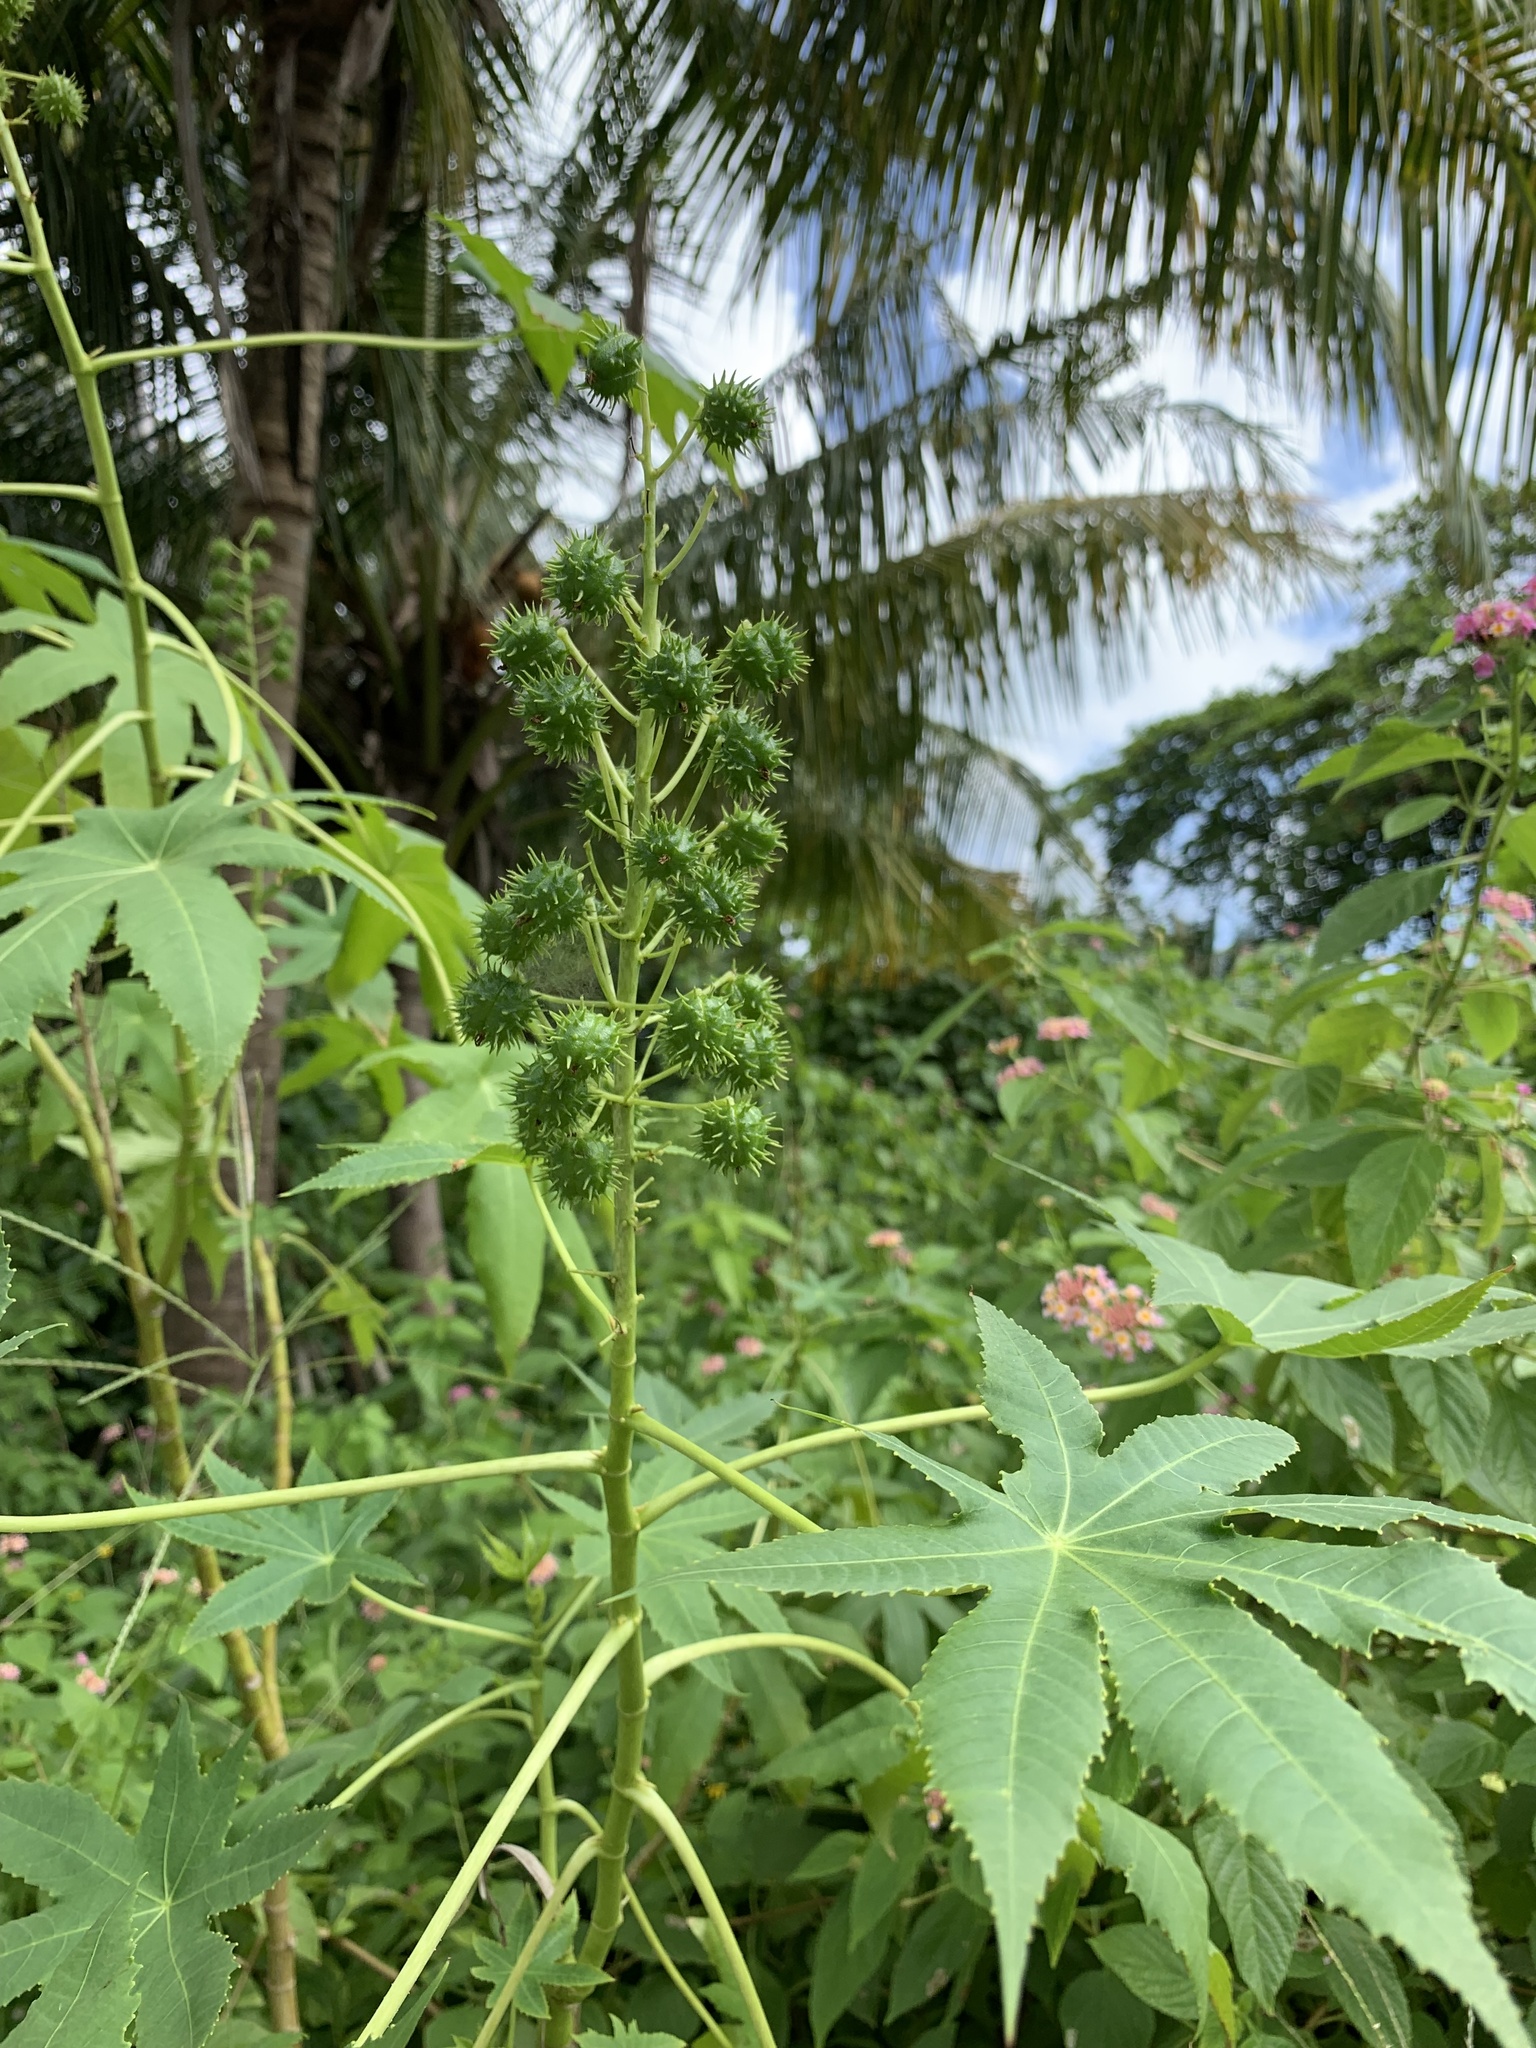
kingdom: Plantae
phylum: Tracheophyta
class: Magnoliopsida
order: Malpighiales
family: Euphorbiaceae
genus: Ricinus
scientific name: Ricinus communis
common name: Castor-oil-plant
